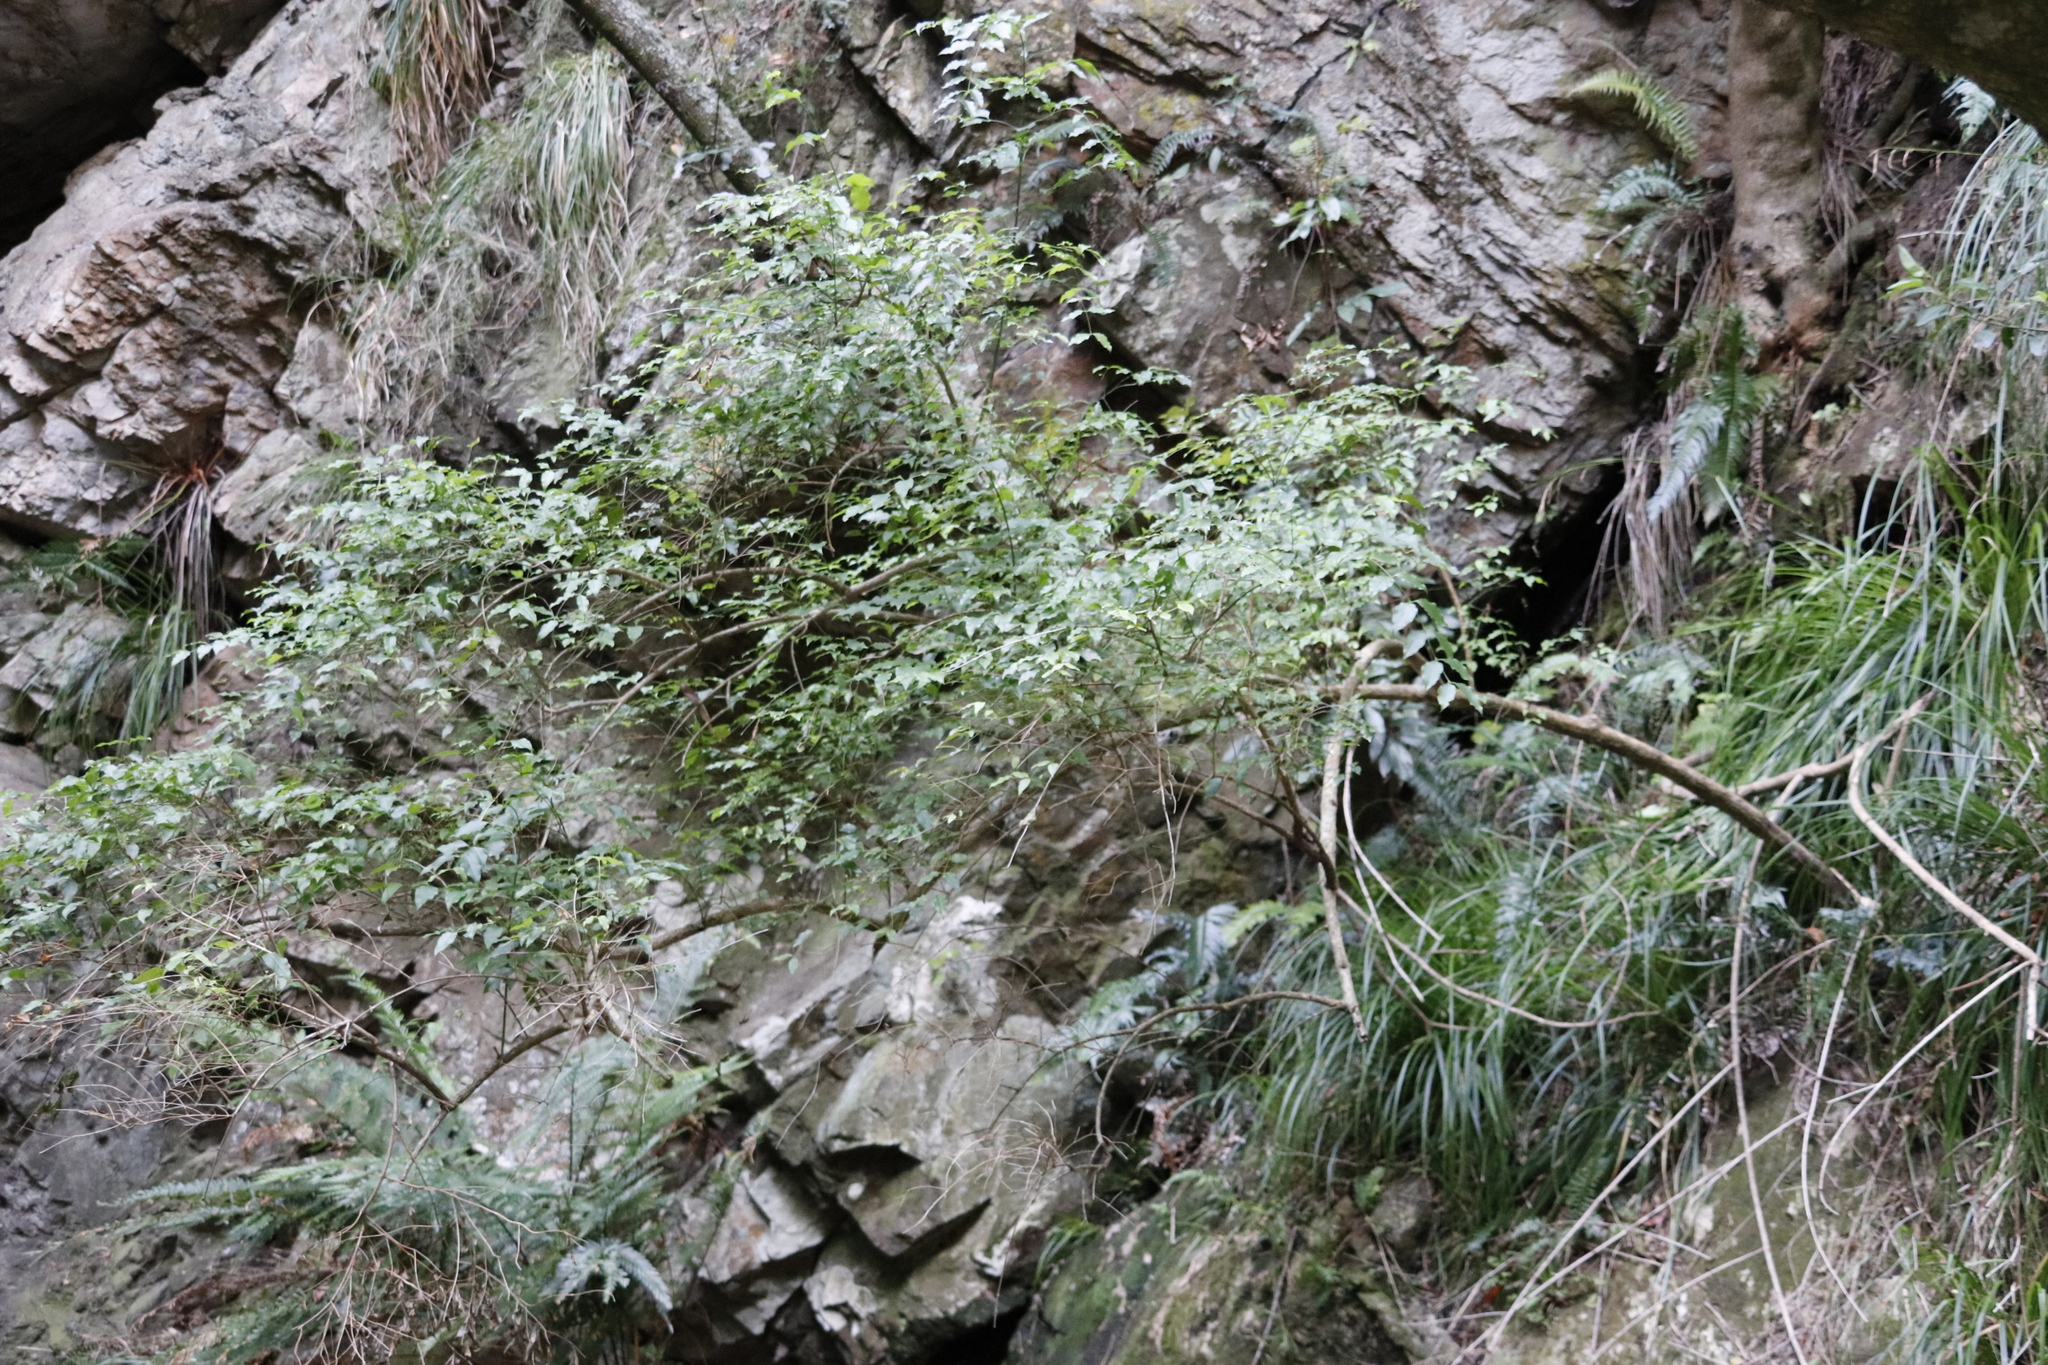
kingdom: Plantae
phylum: Tracheophyta
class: Magnoliopsida
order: Lamiales
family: Stilbaceae
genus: Halleria
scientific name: Halleria lucida
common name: Tree fuschia
